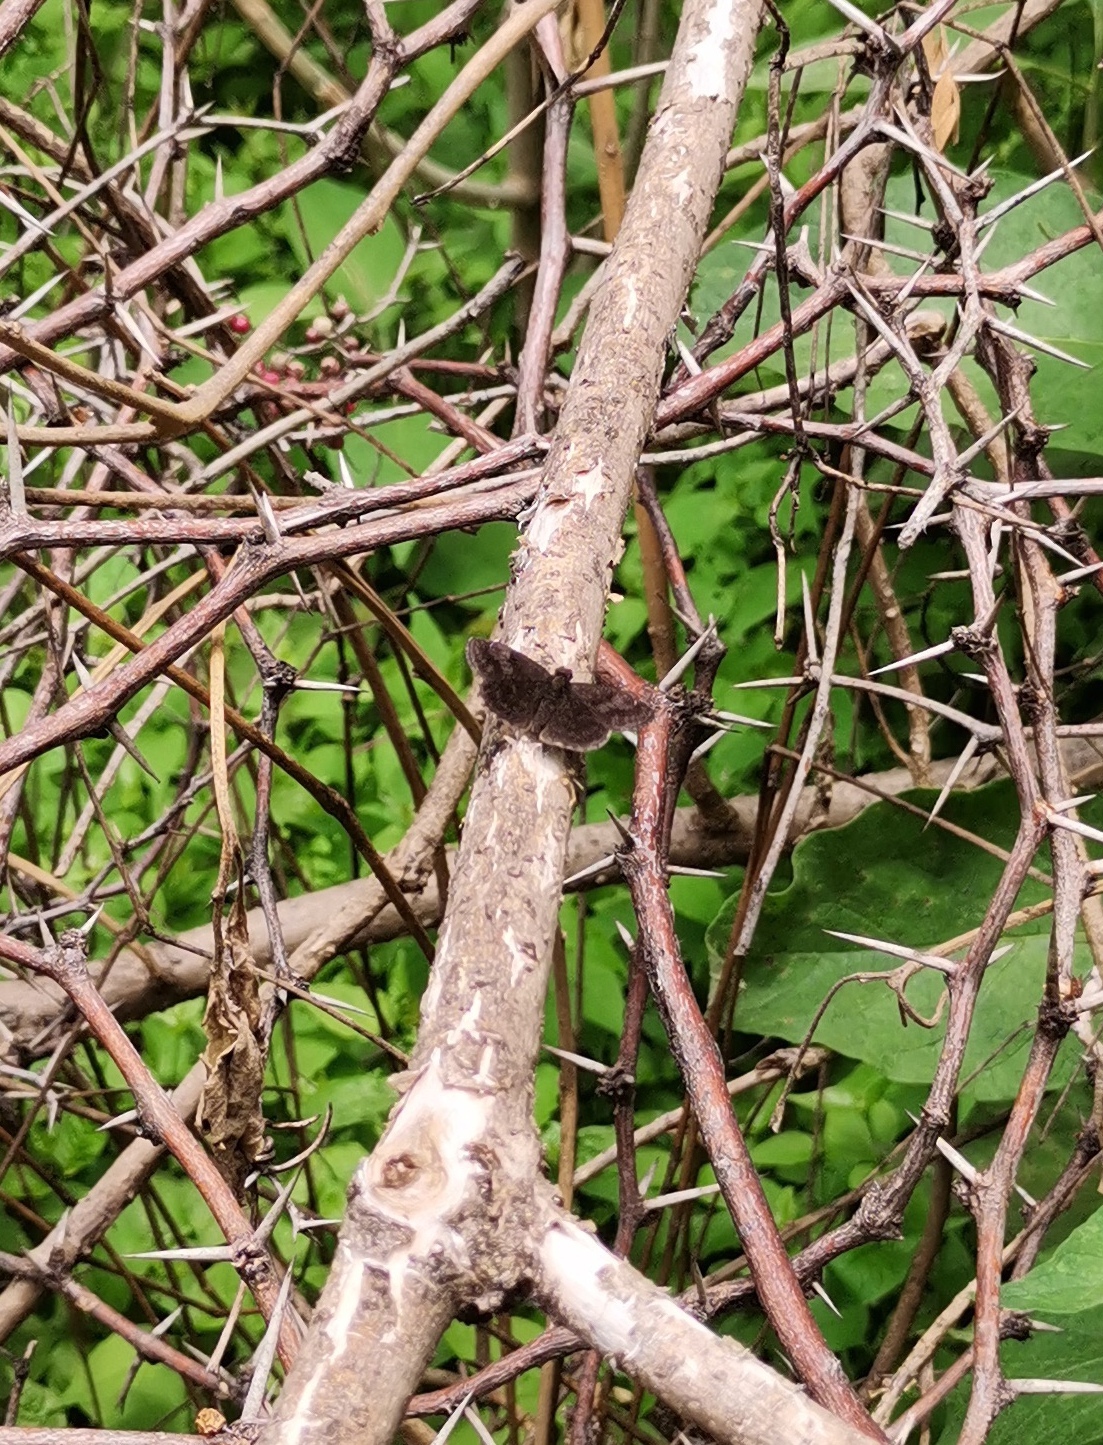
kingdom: Animalia
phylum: Arthropoda
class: Insecta
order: Lepidoptera
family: Hesperiidae
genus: Staphylus
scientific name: Staphylus vincula
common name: Mountain sootywing
